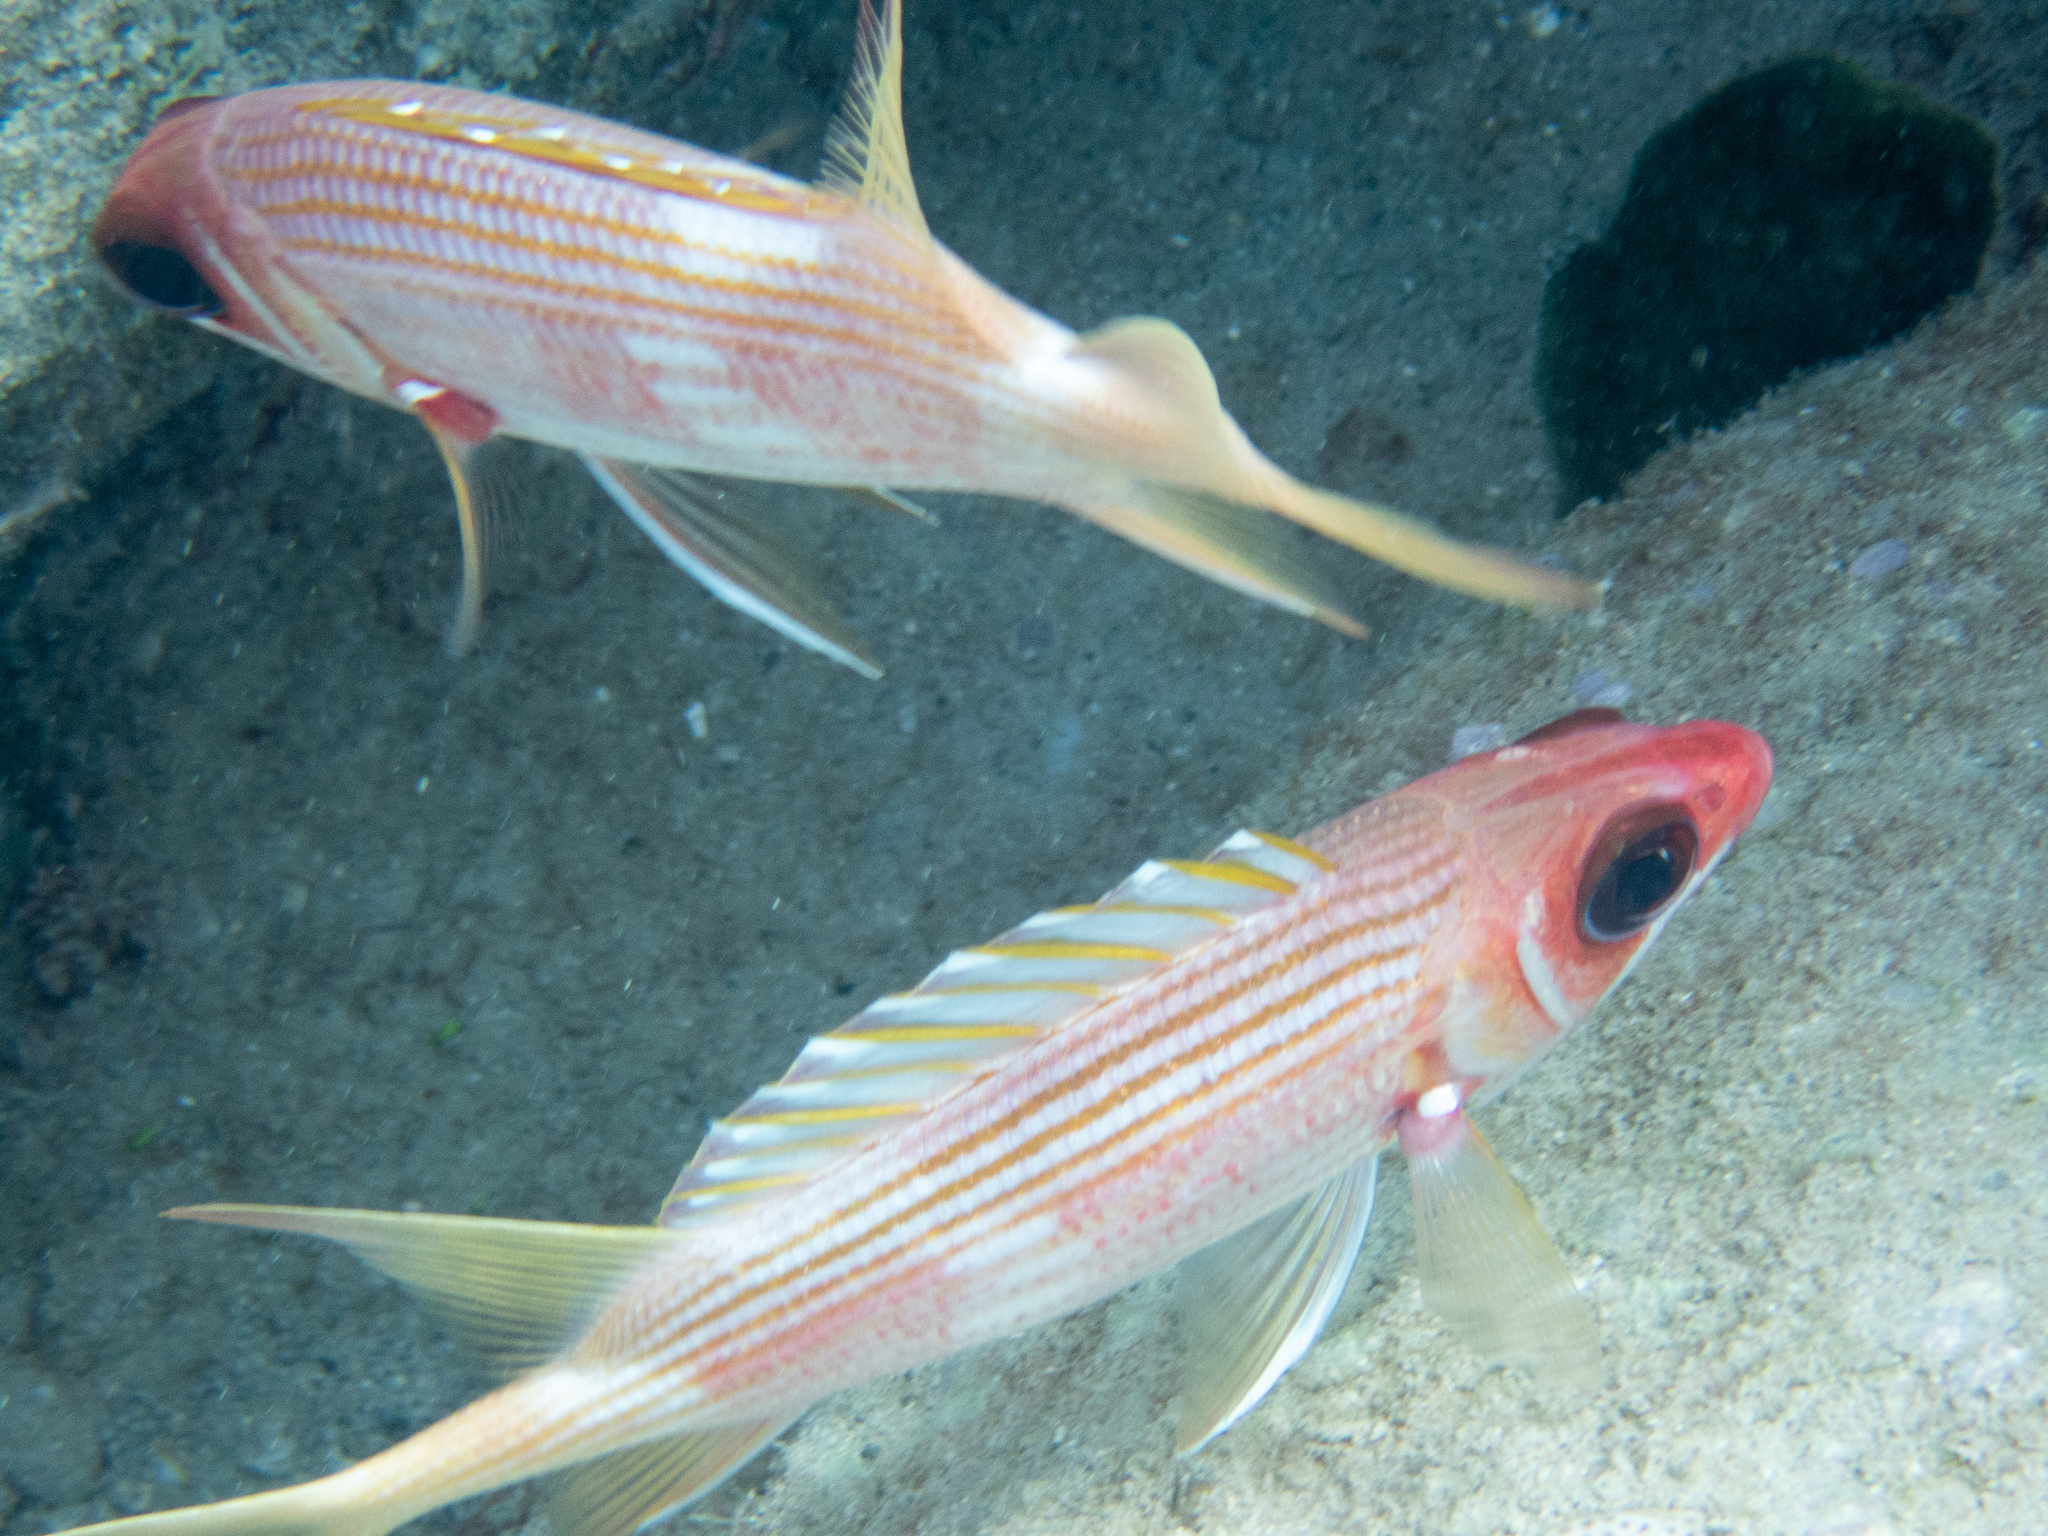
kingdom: Animalia
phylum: Chordata
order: Beryciformes
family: Holocentridae
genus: Holocentrus
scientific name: Holocentrus rufus
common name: Longspine squirrelfish
